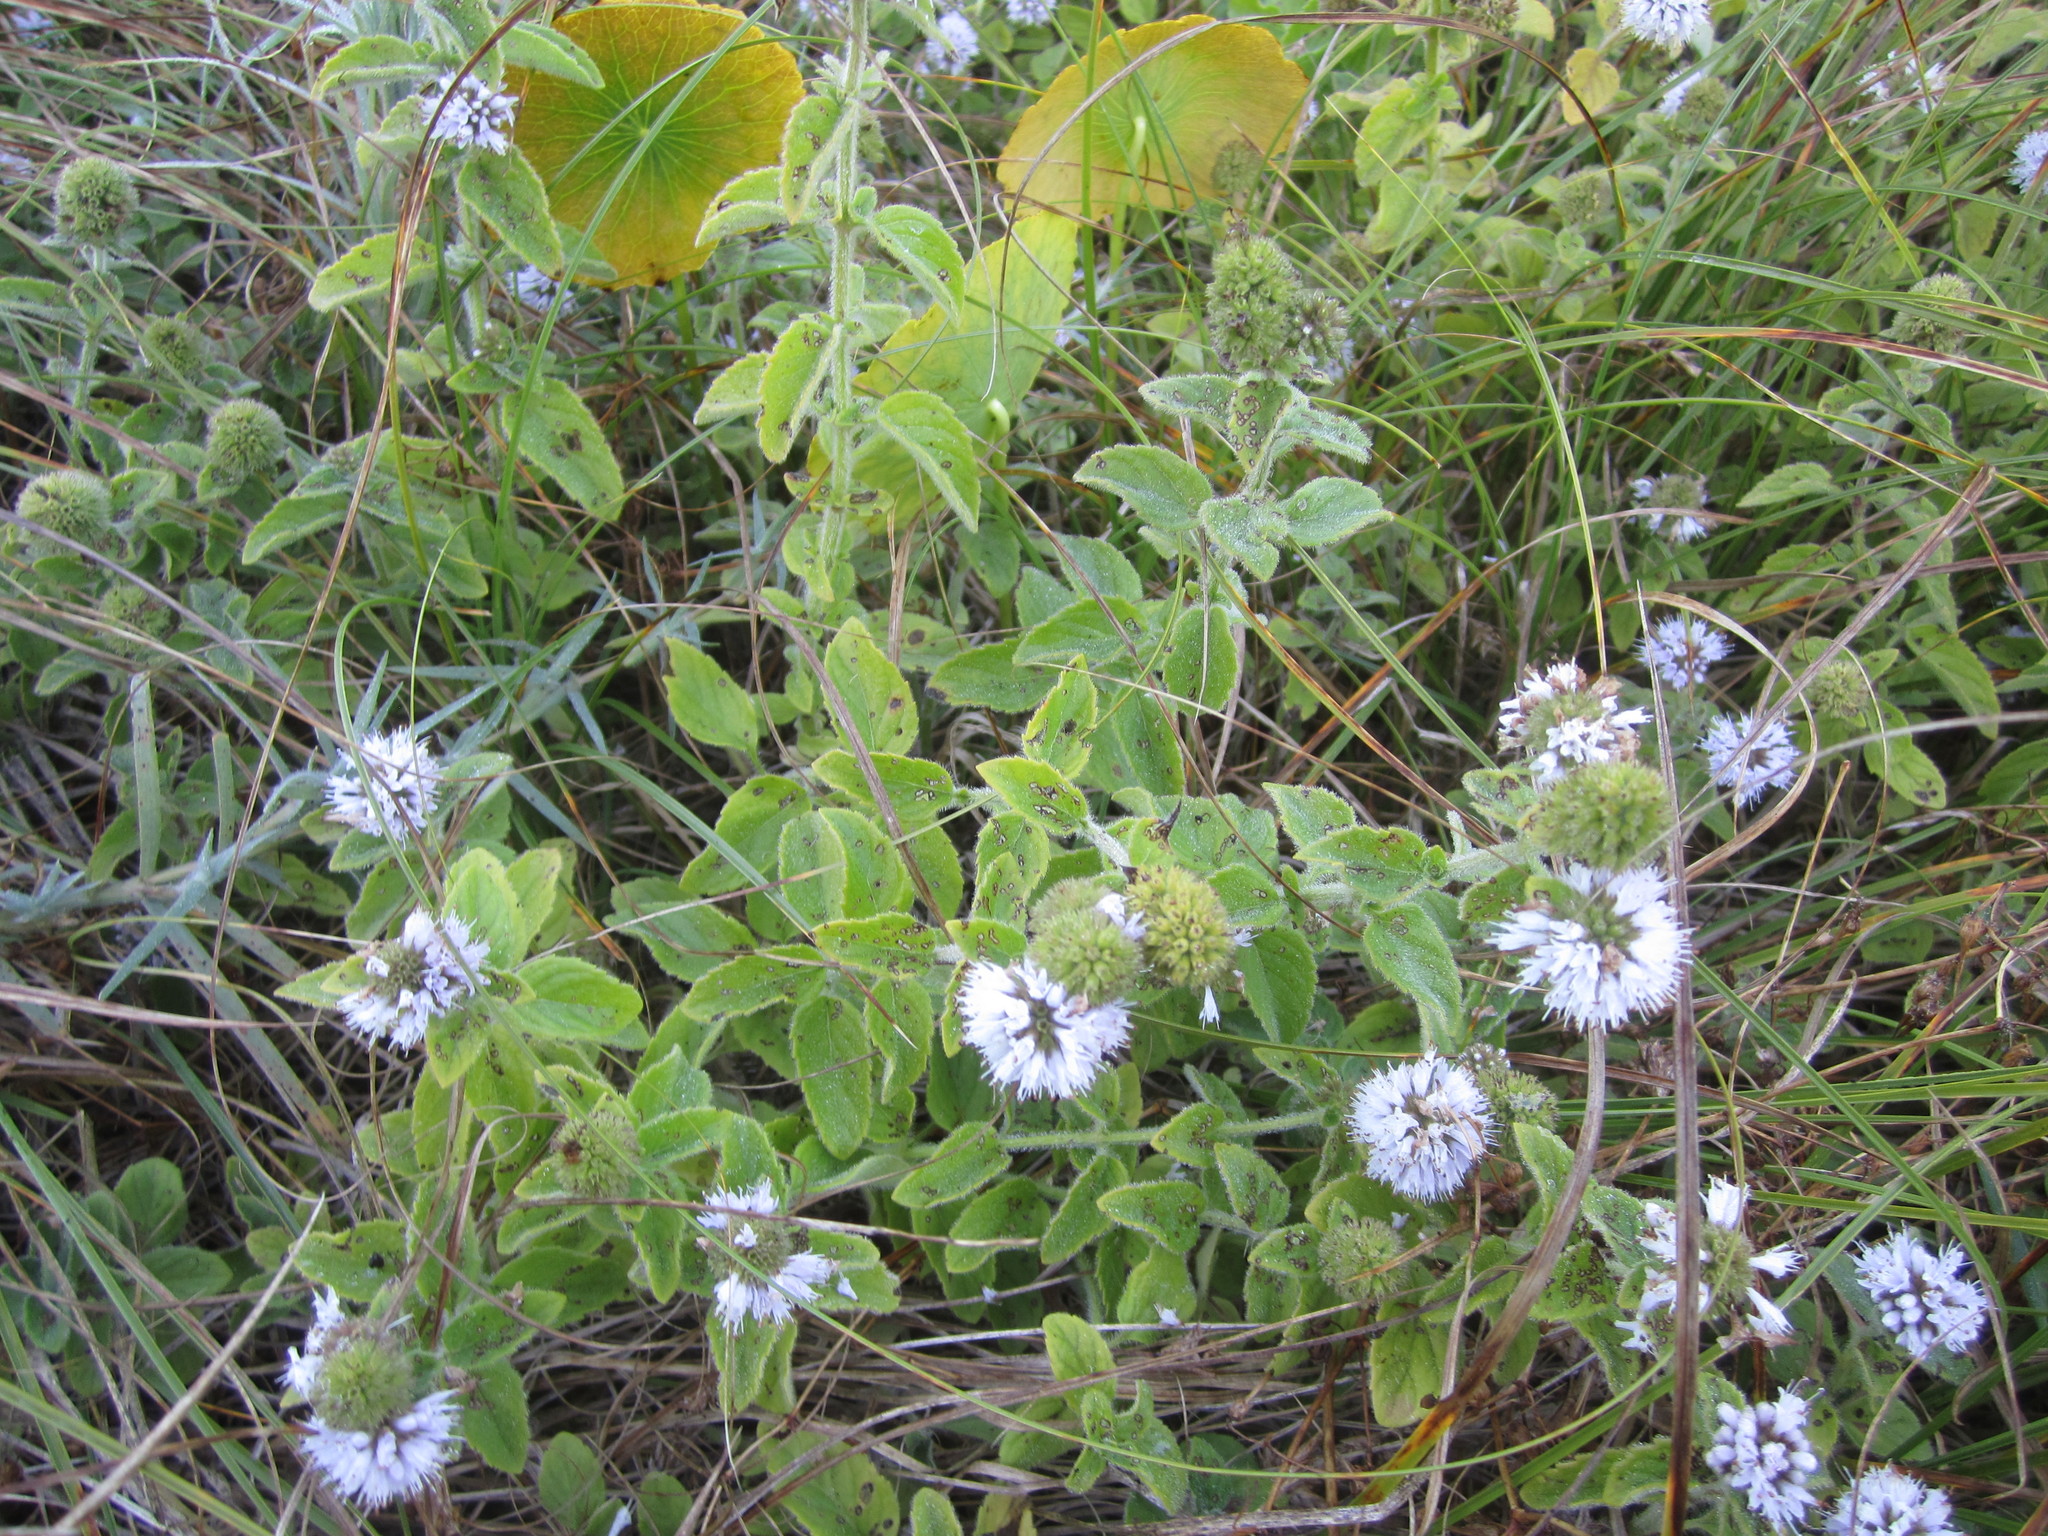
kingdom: Plantae
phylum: Tracheophyta
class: Magnoliopsida
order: Lamiales
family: Lamiaceae
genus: Mentha
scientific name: Mentha aquatica
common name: Water mint
